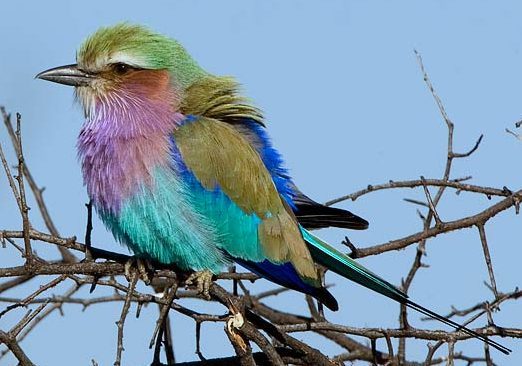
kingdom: Animalia
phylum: Chordata
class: Aves
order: Coraciiformes
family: Coraciidae
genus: Coracias
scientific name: Coracias caudatus
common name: Lilac-breasted roller
